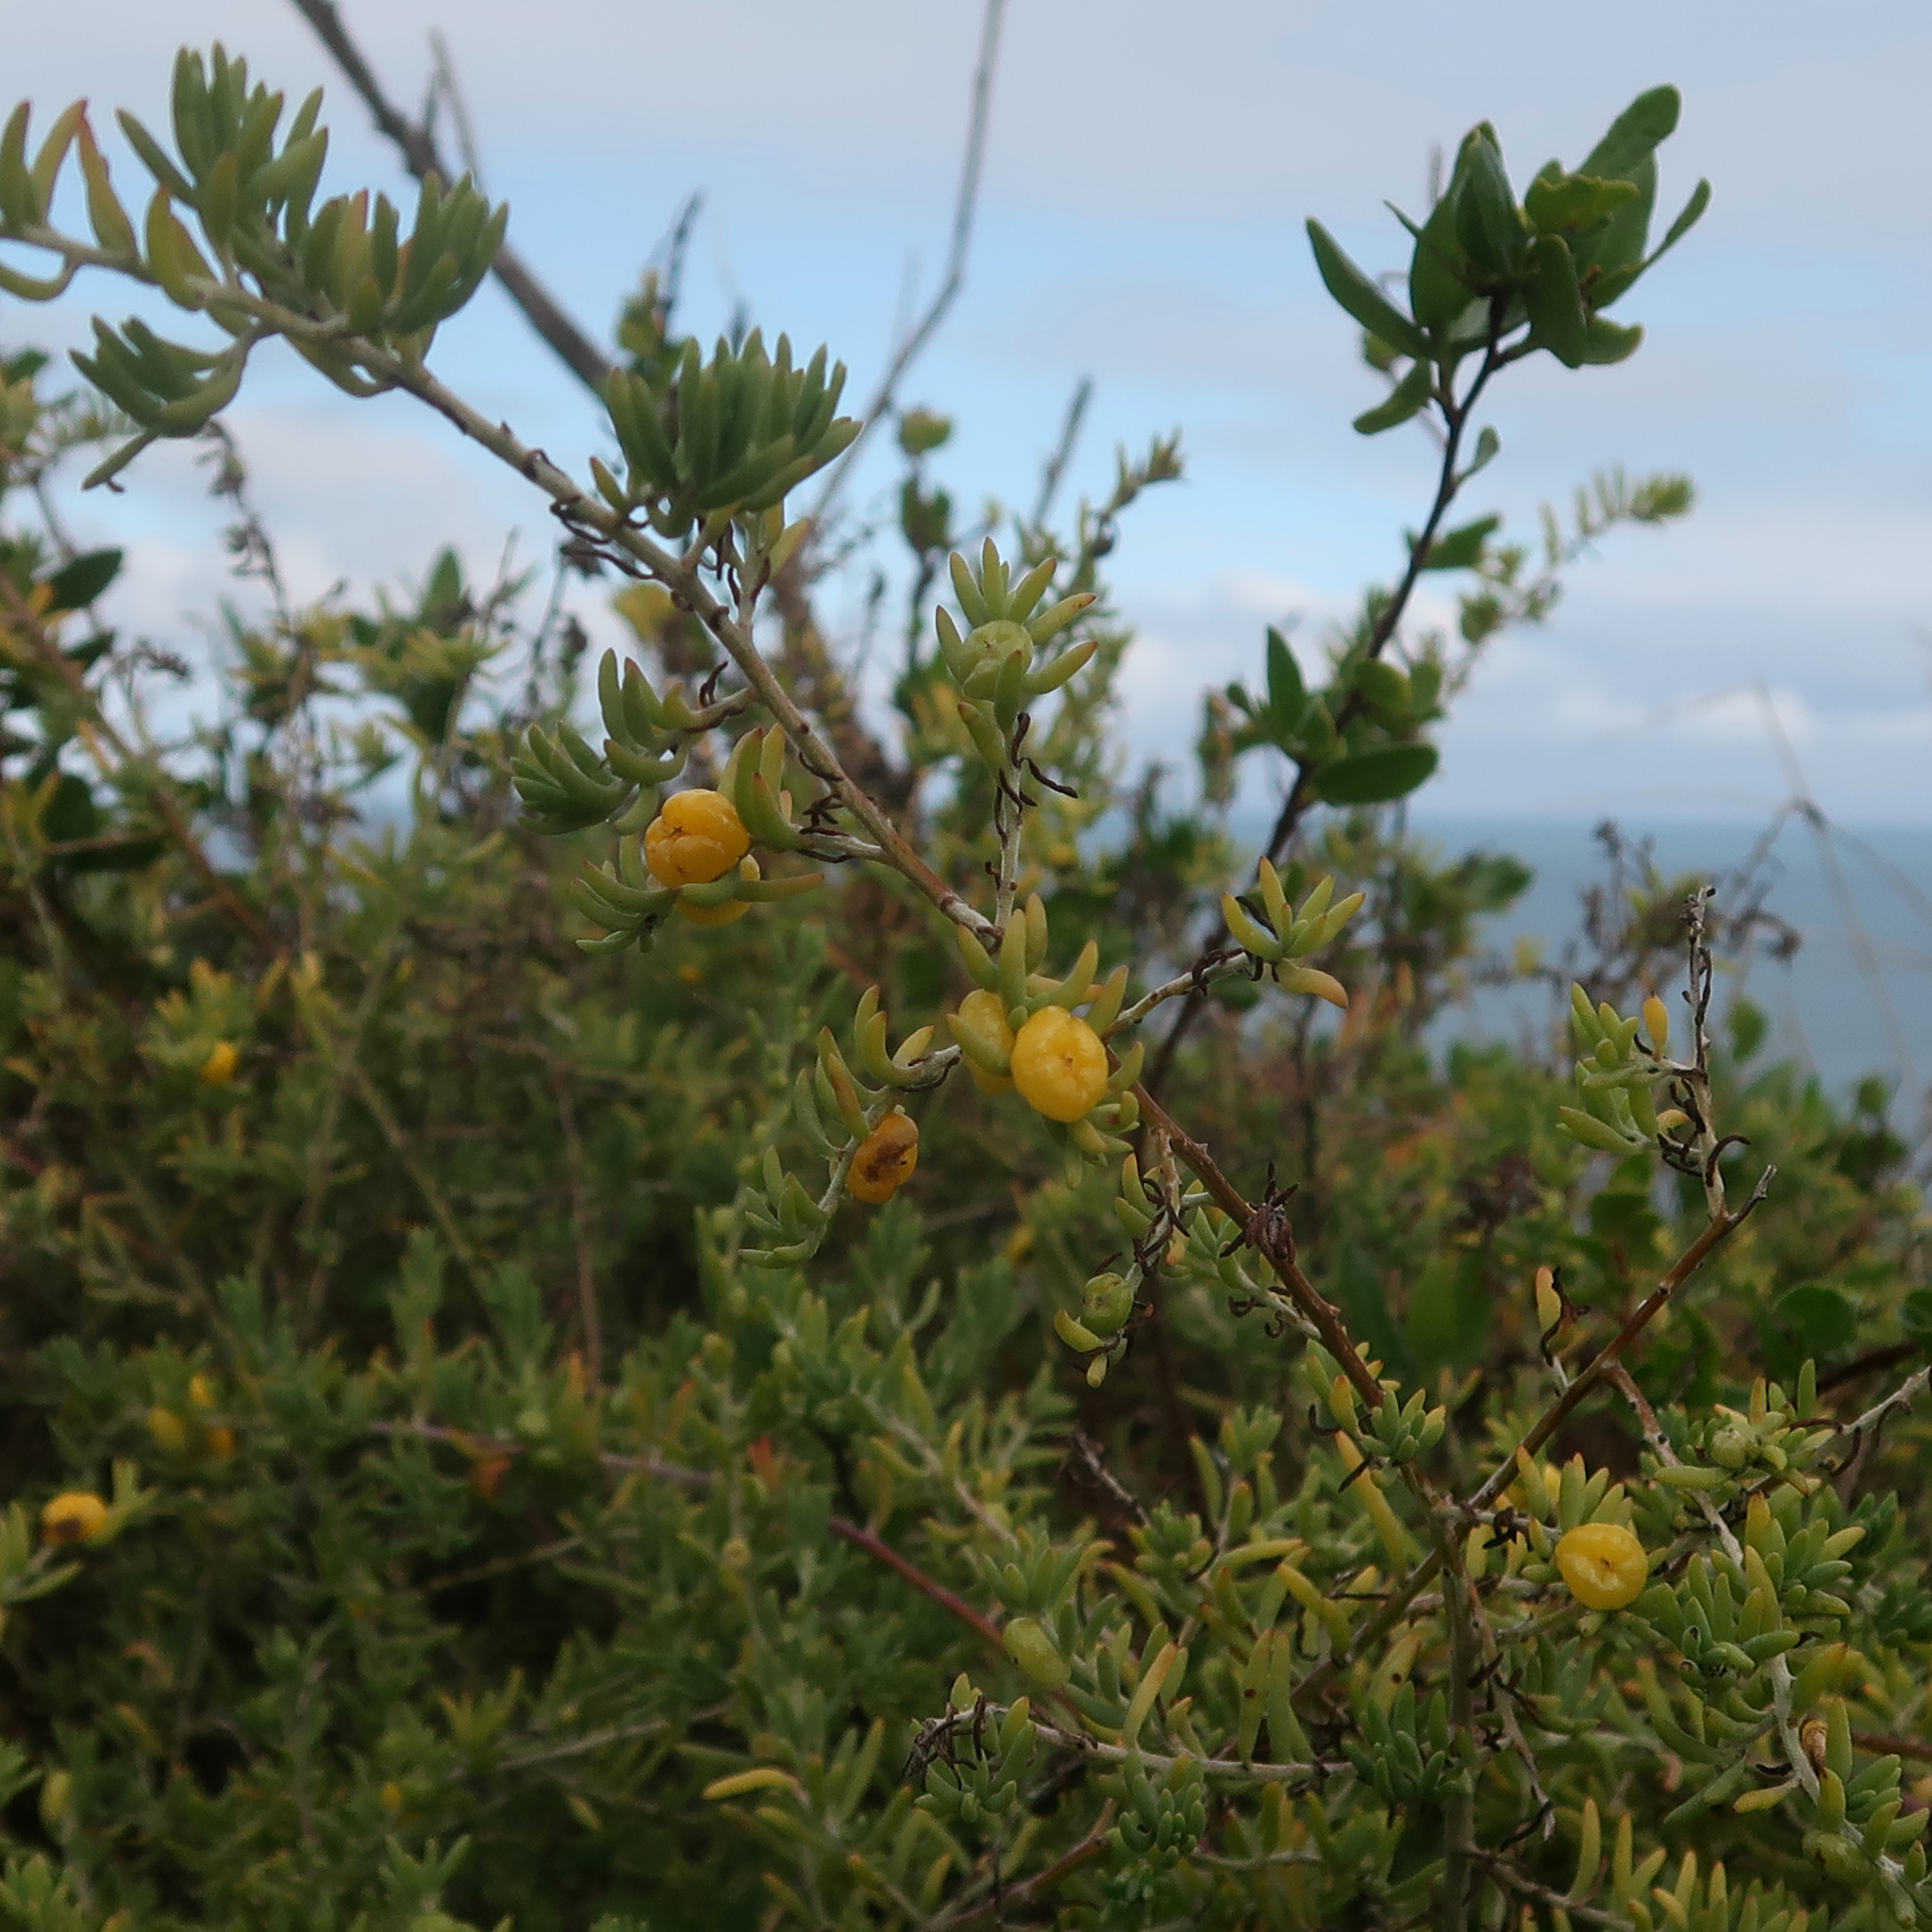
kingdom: Plantae
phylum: Tracheophyta
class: Magnoliopsida
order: Caryophyllales
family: Amaranthaceae
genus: Enchylaena
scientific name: Enchylaena tomentosa
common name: Ruby saltbush
